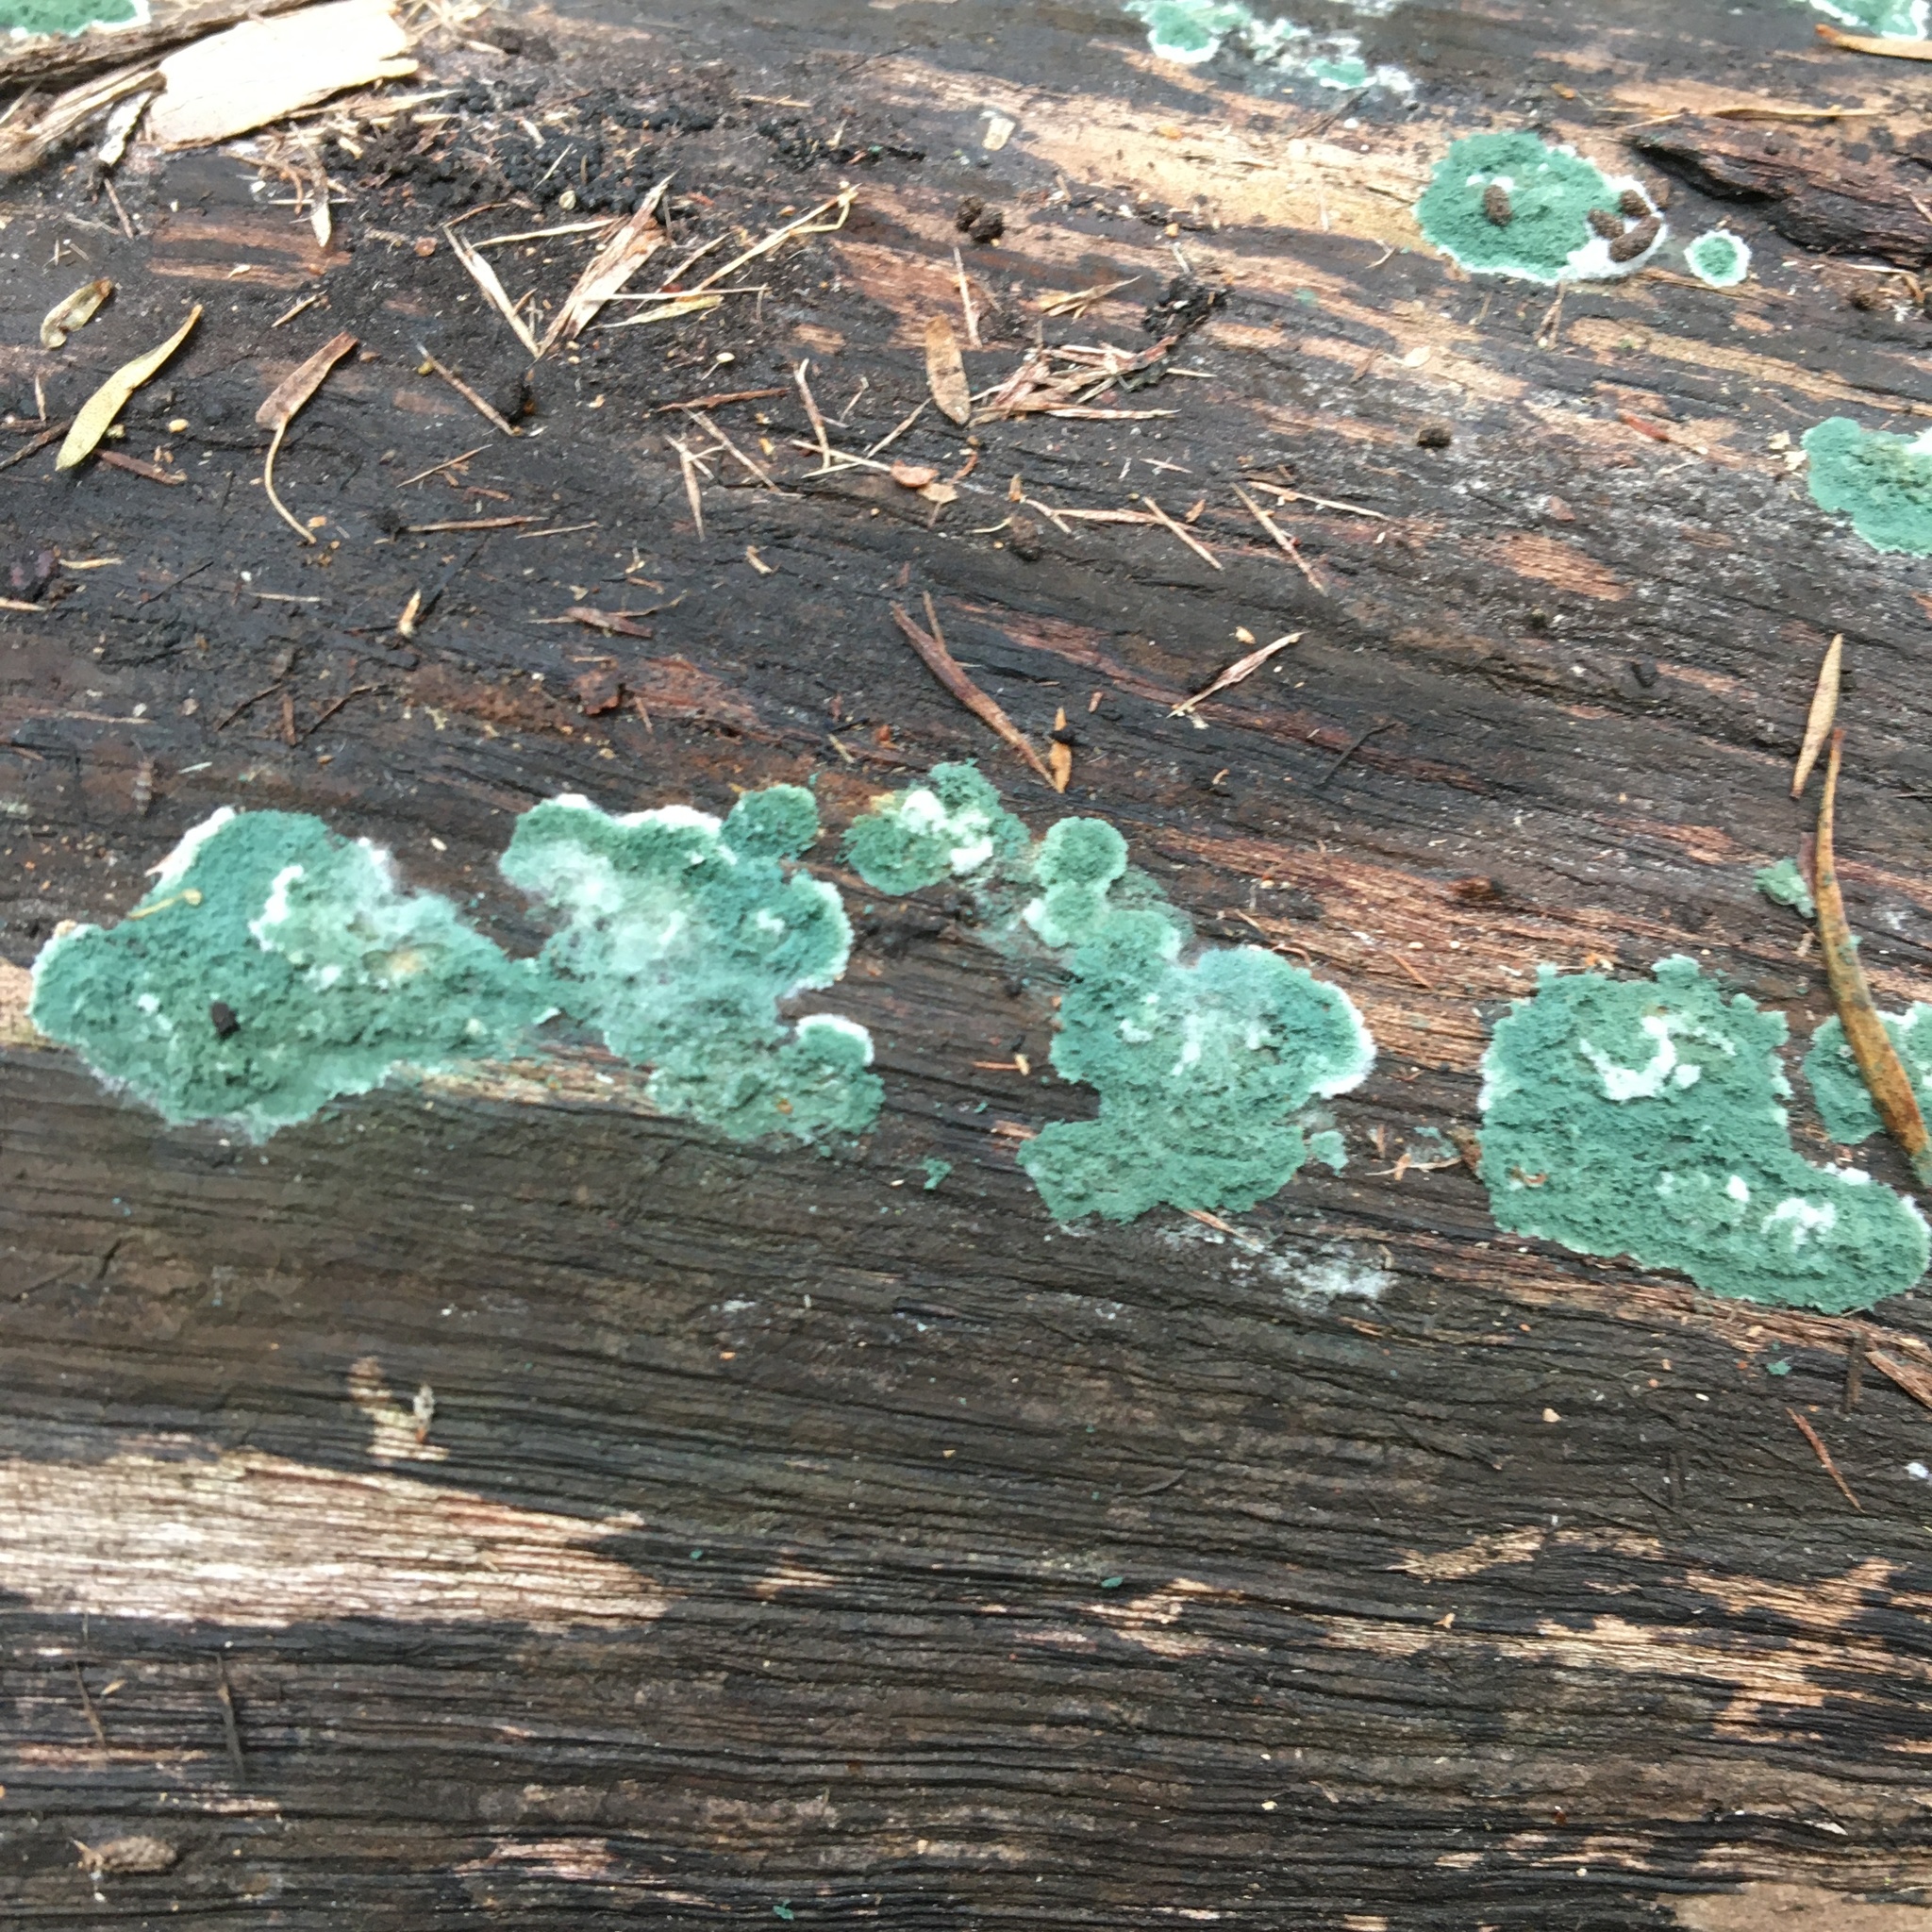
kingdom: Fungi
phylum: Ascomycota
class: Sordariomycetes
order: Hypocreales
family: Hypocreaceae
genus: Trichoderma
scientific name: Trichoderma viride
